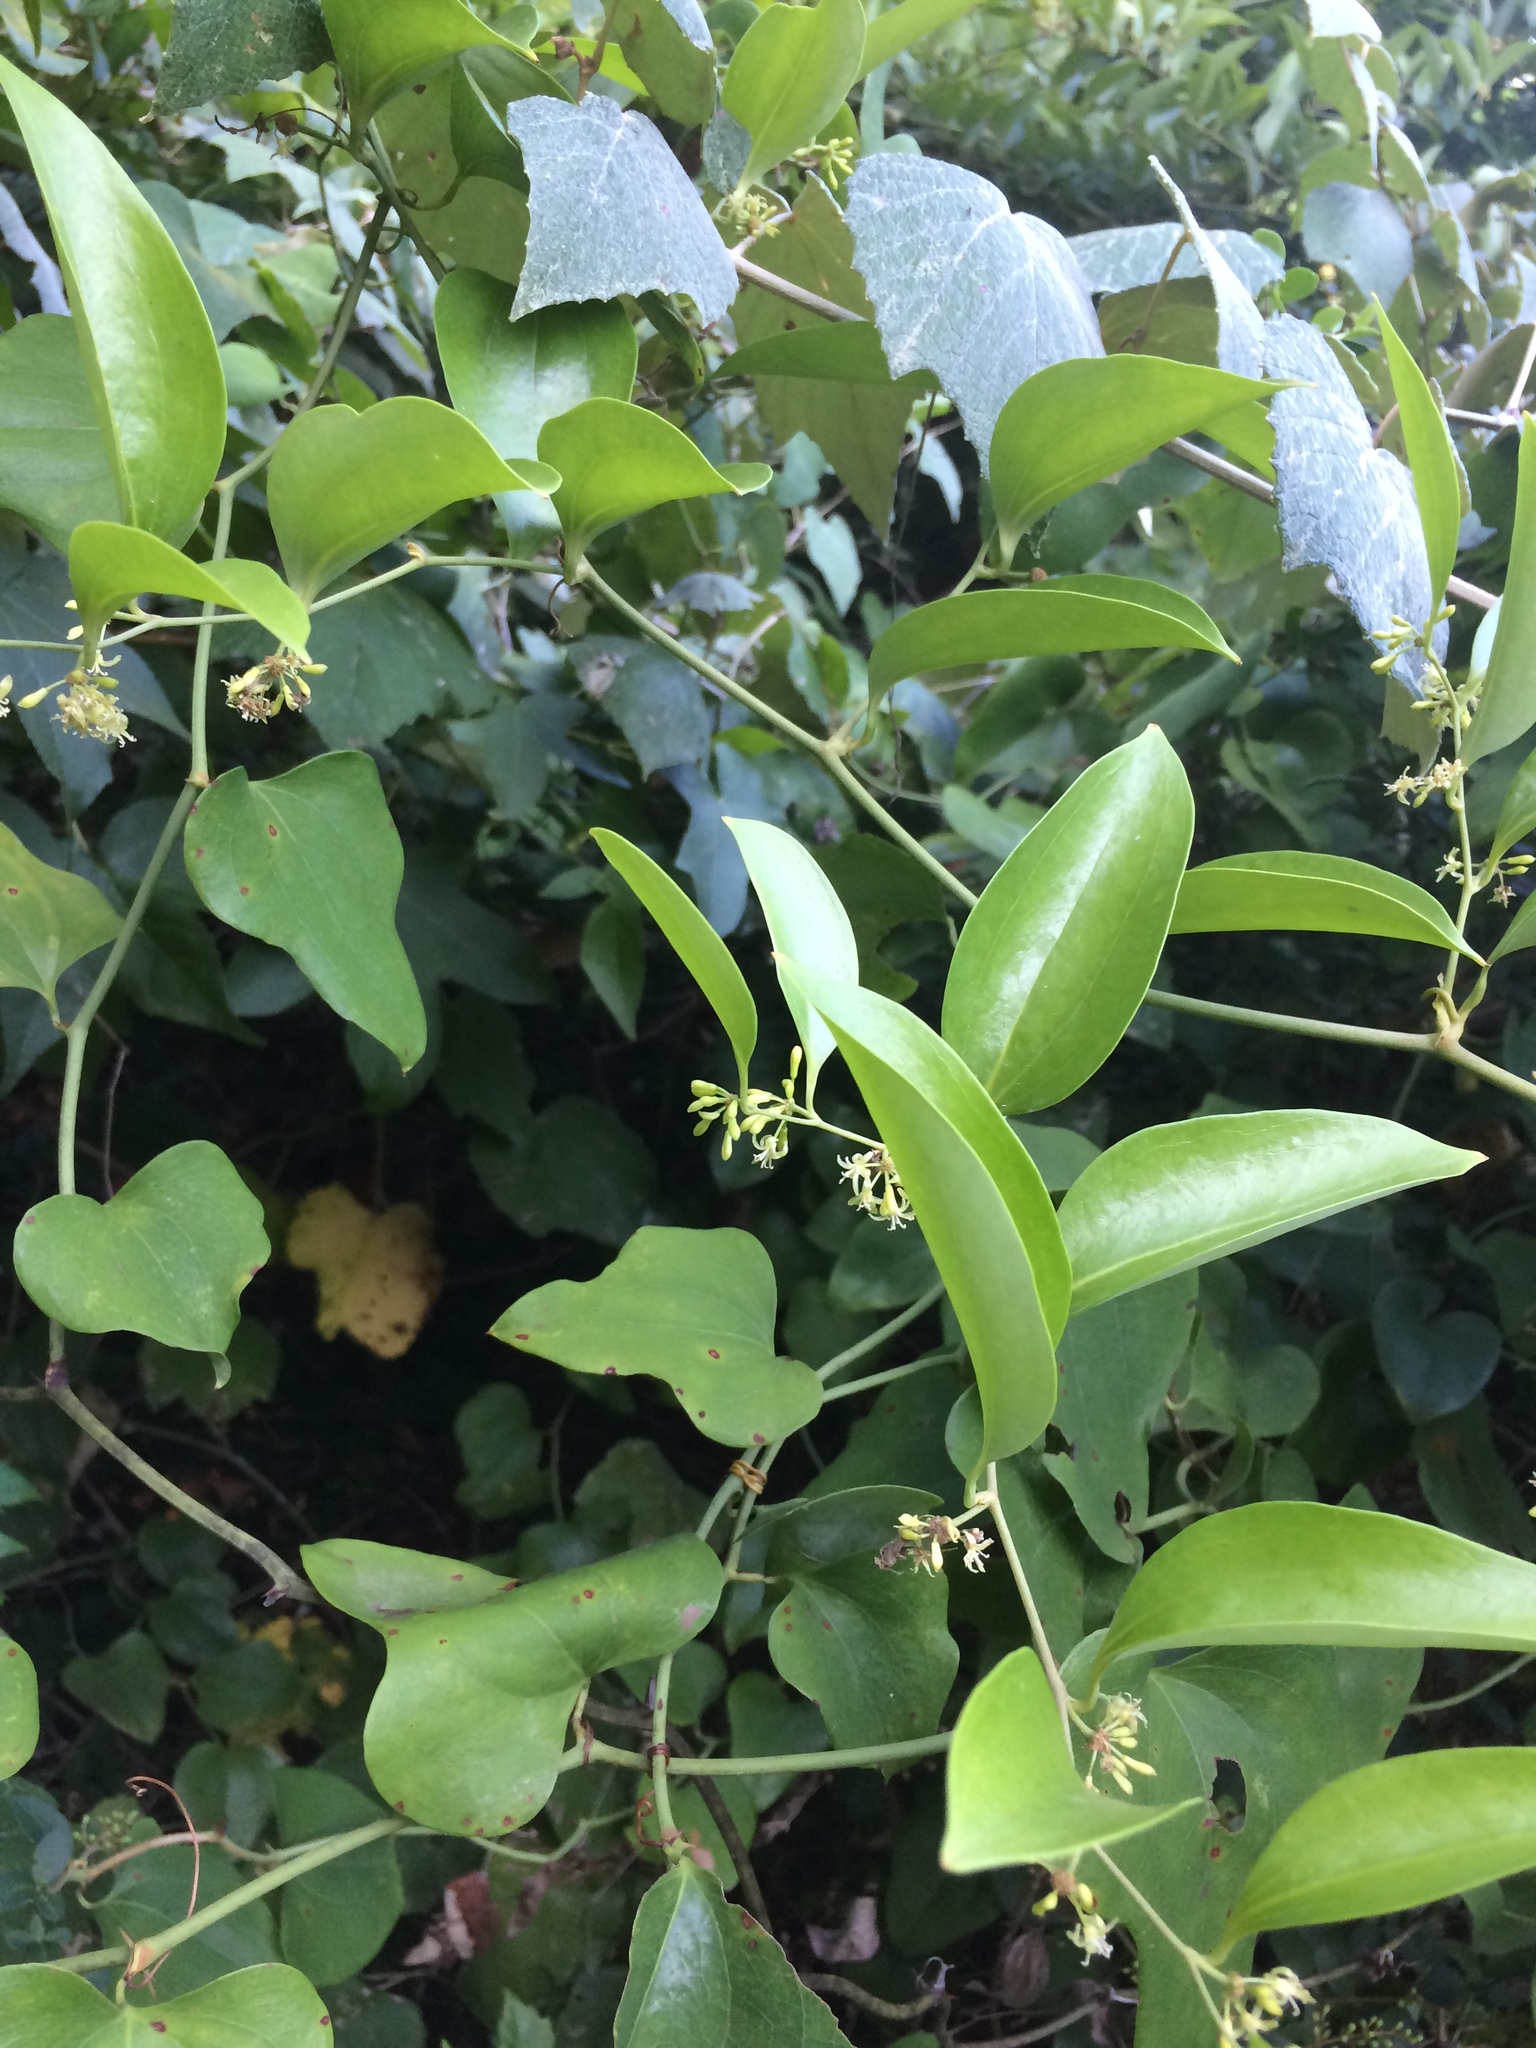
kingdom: Plantae
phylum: Tracheophyta
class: Liliopsida
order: Liliales
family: Smilacaceae
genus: Smilax
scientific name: Smilax laurifolia
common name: Bamboovine
